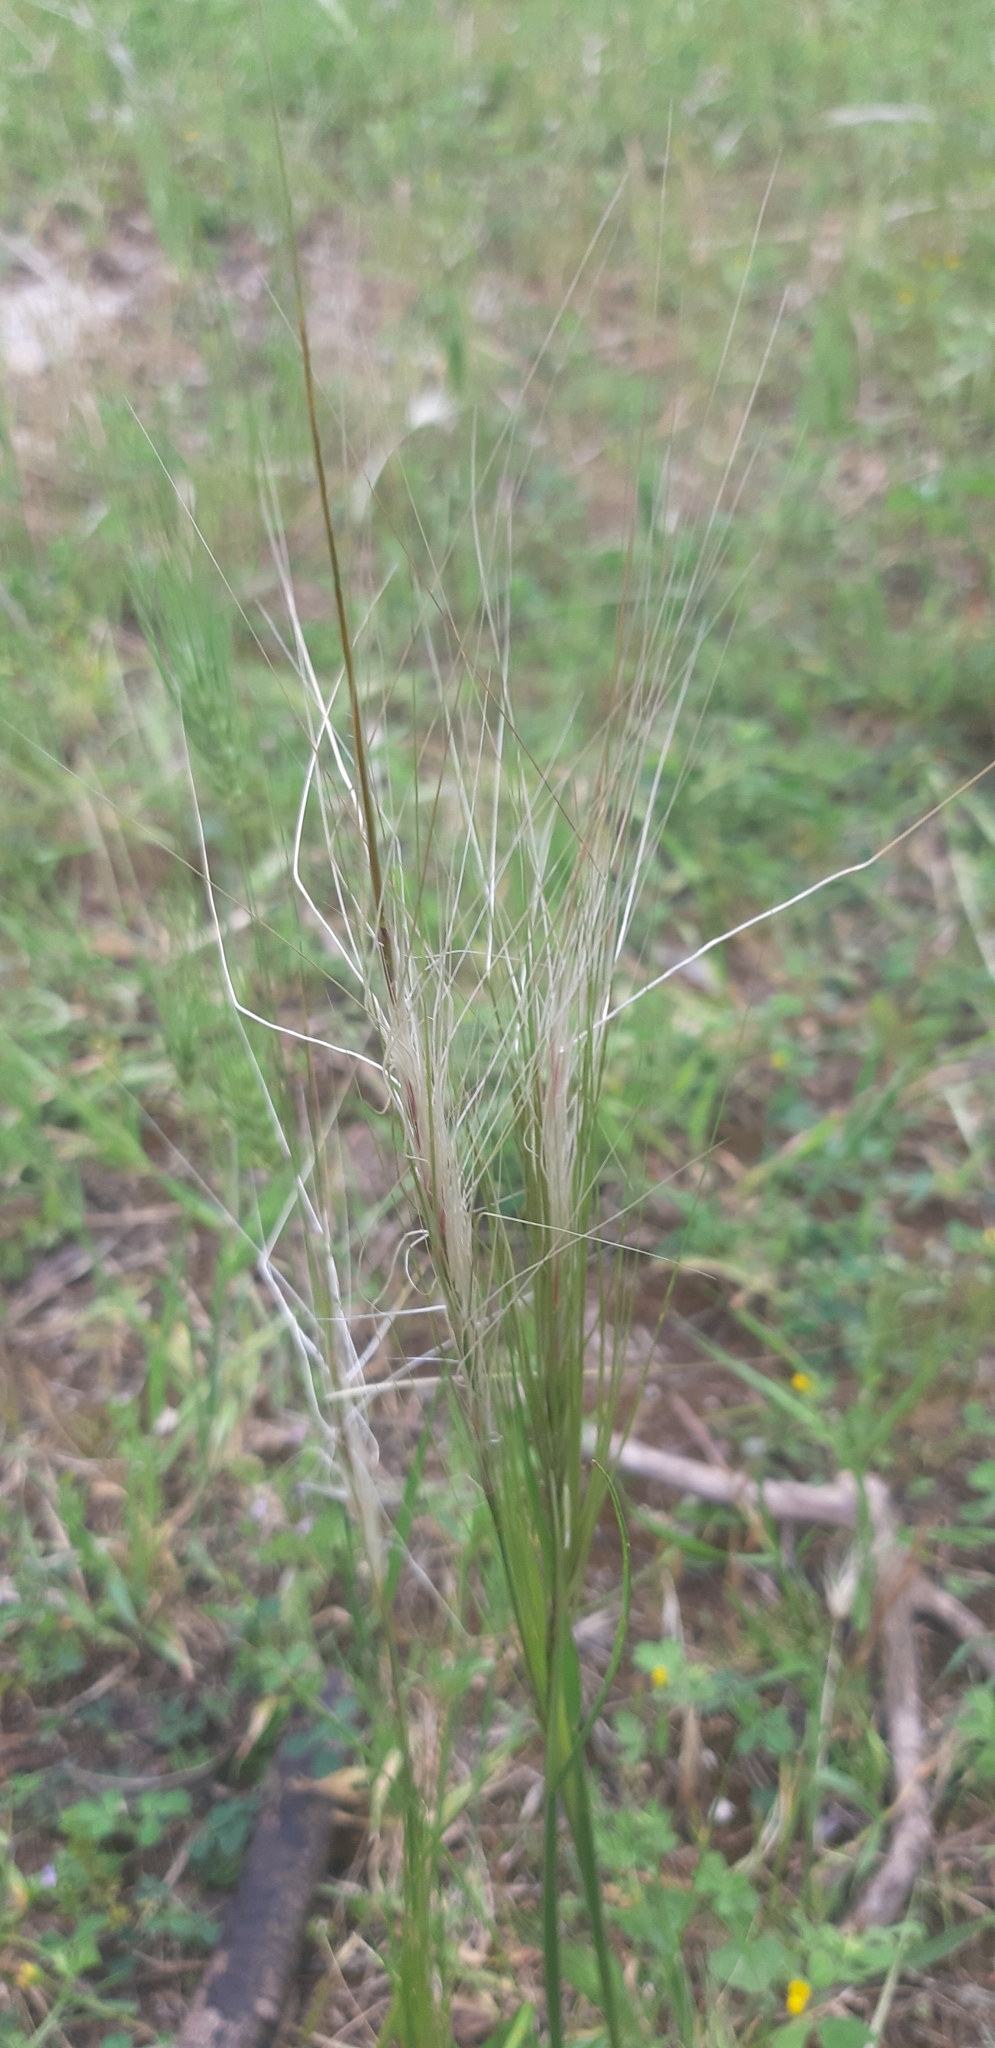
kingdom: Plantae
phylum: Tracheophyta
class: Liliopsida
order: Poales
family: Poaceae
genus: Stipellula
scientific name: Stipellula capensis
